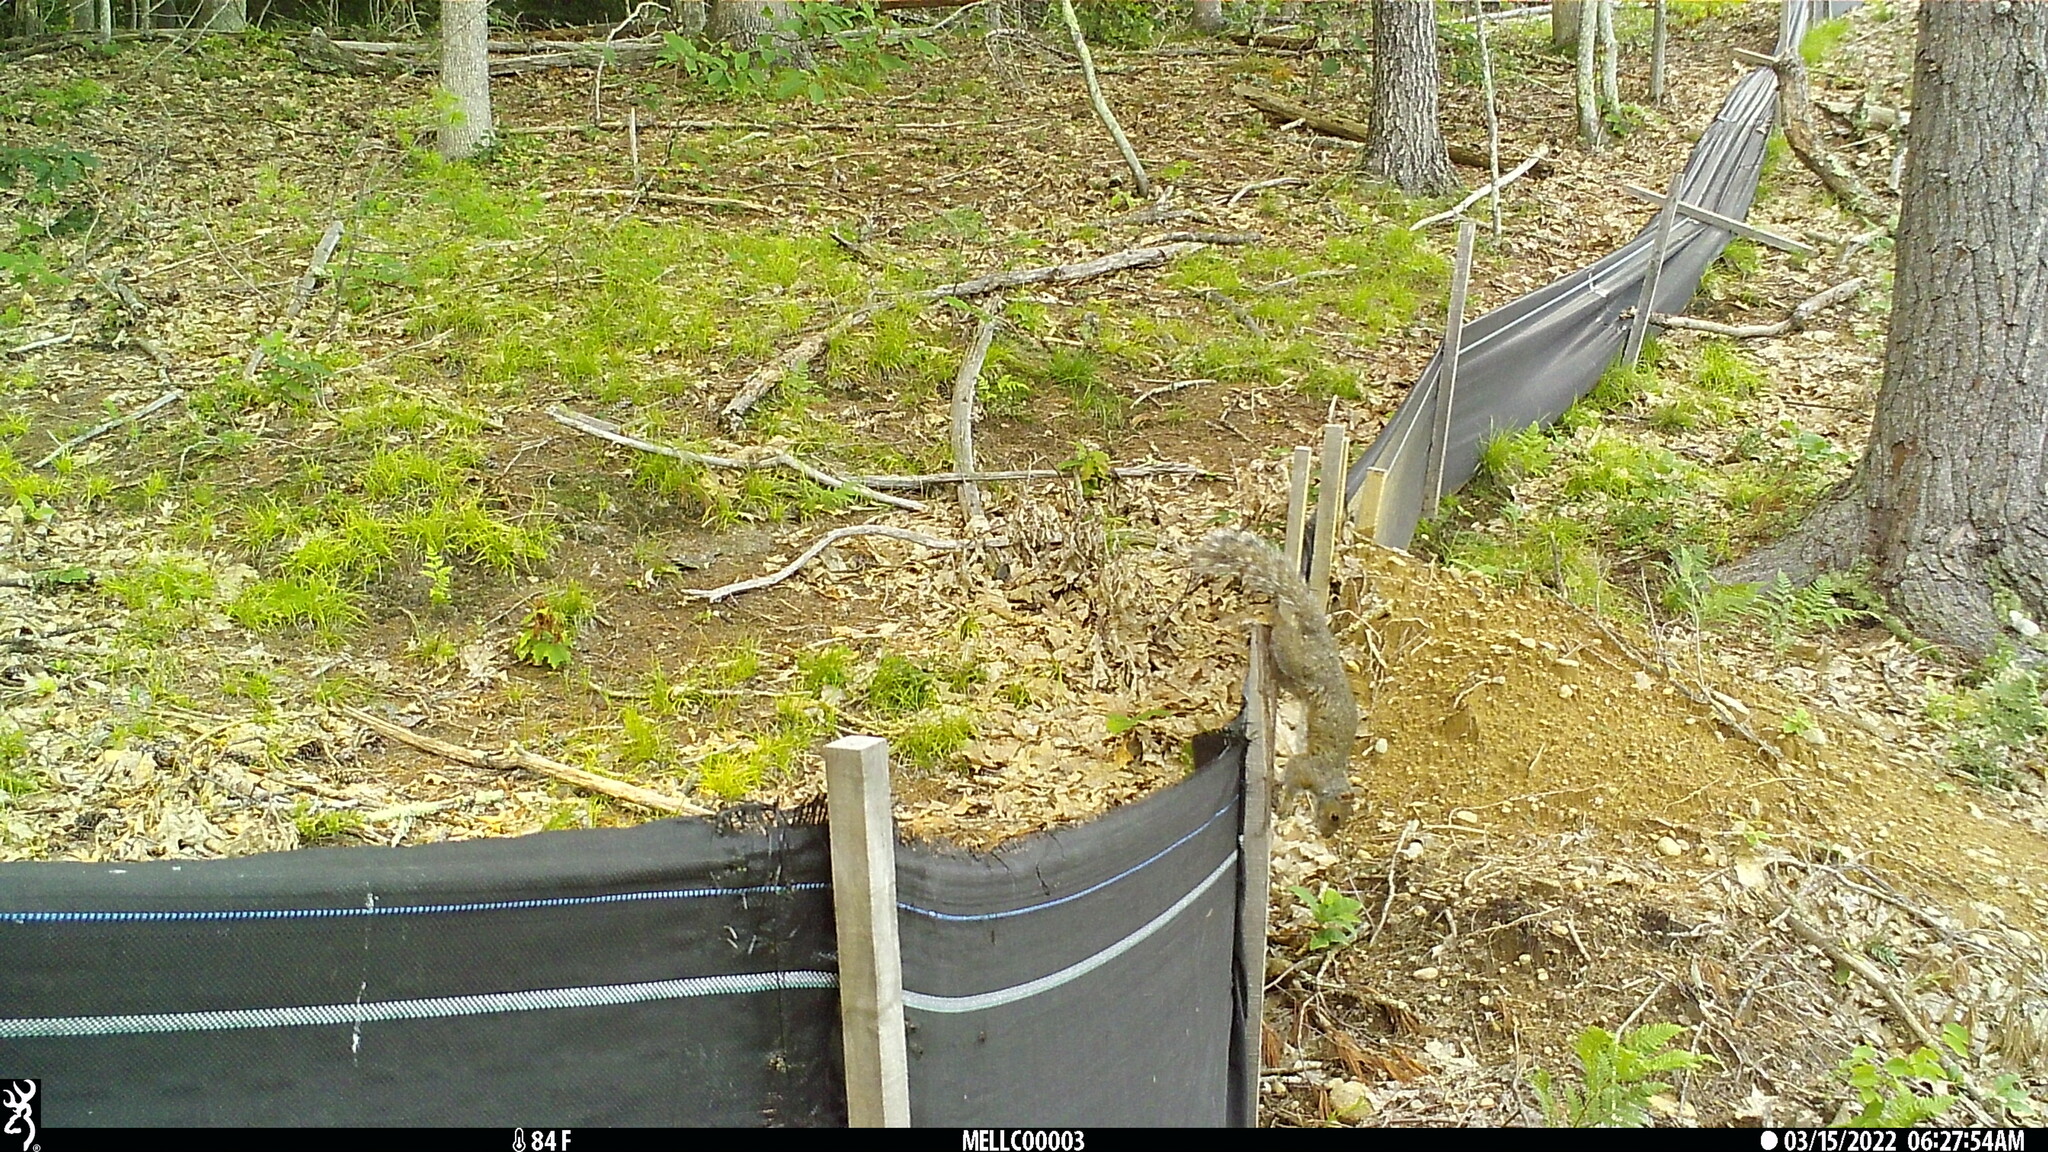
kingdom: Animalia
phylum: Chordata
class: Mammalia
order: Rodentia
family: Sciuridae
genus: Sciurus
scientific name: Sciurus carolinensis
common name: Eastern gray squirrel
